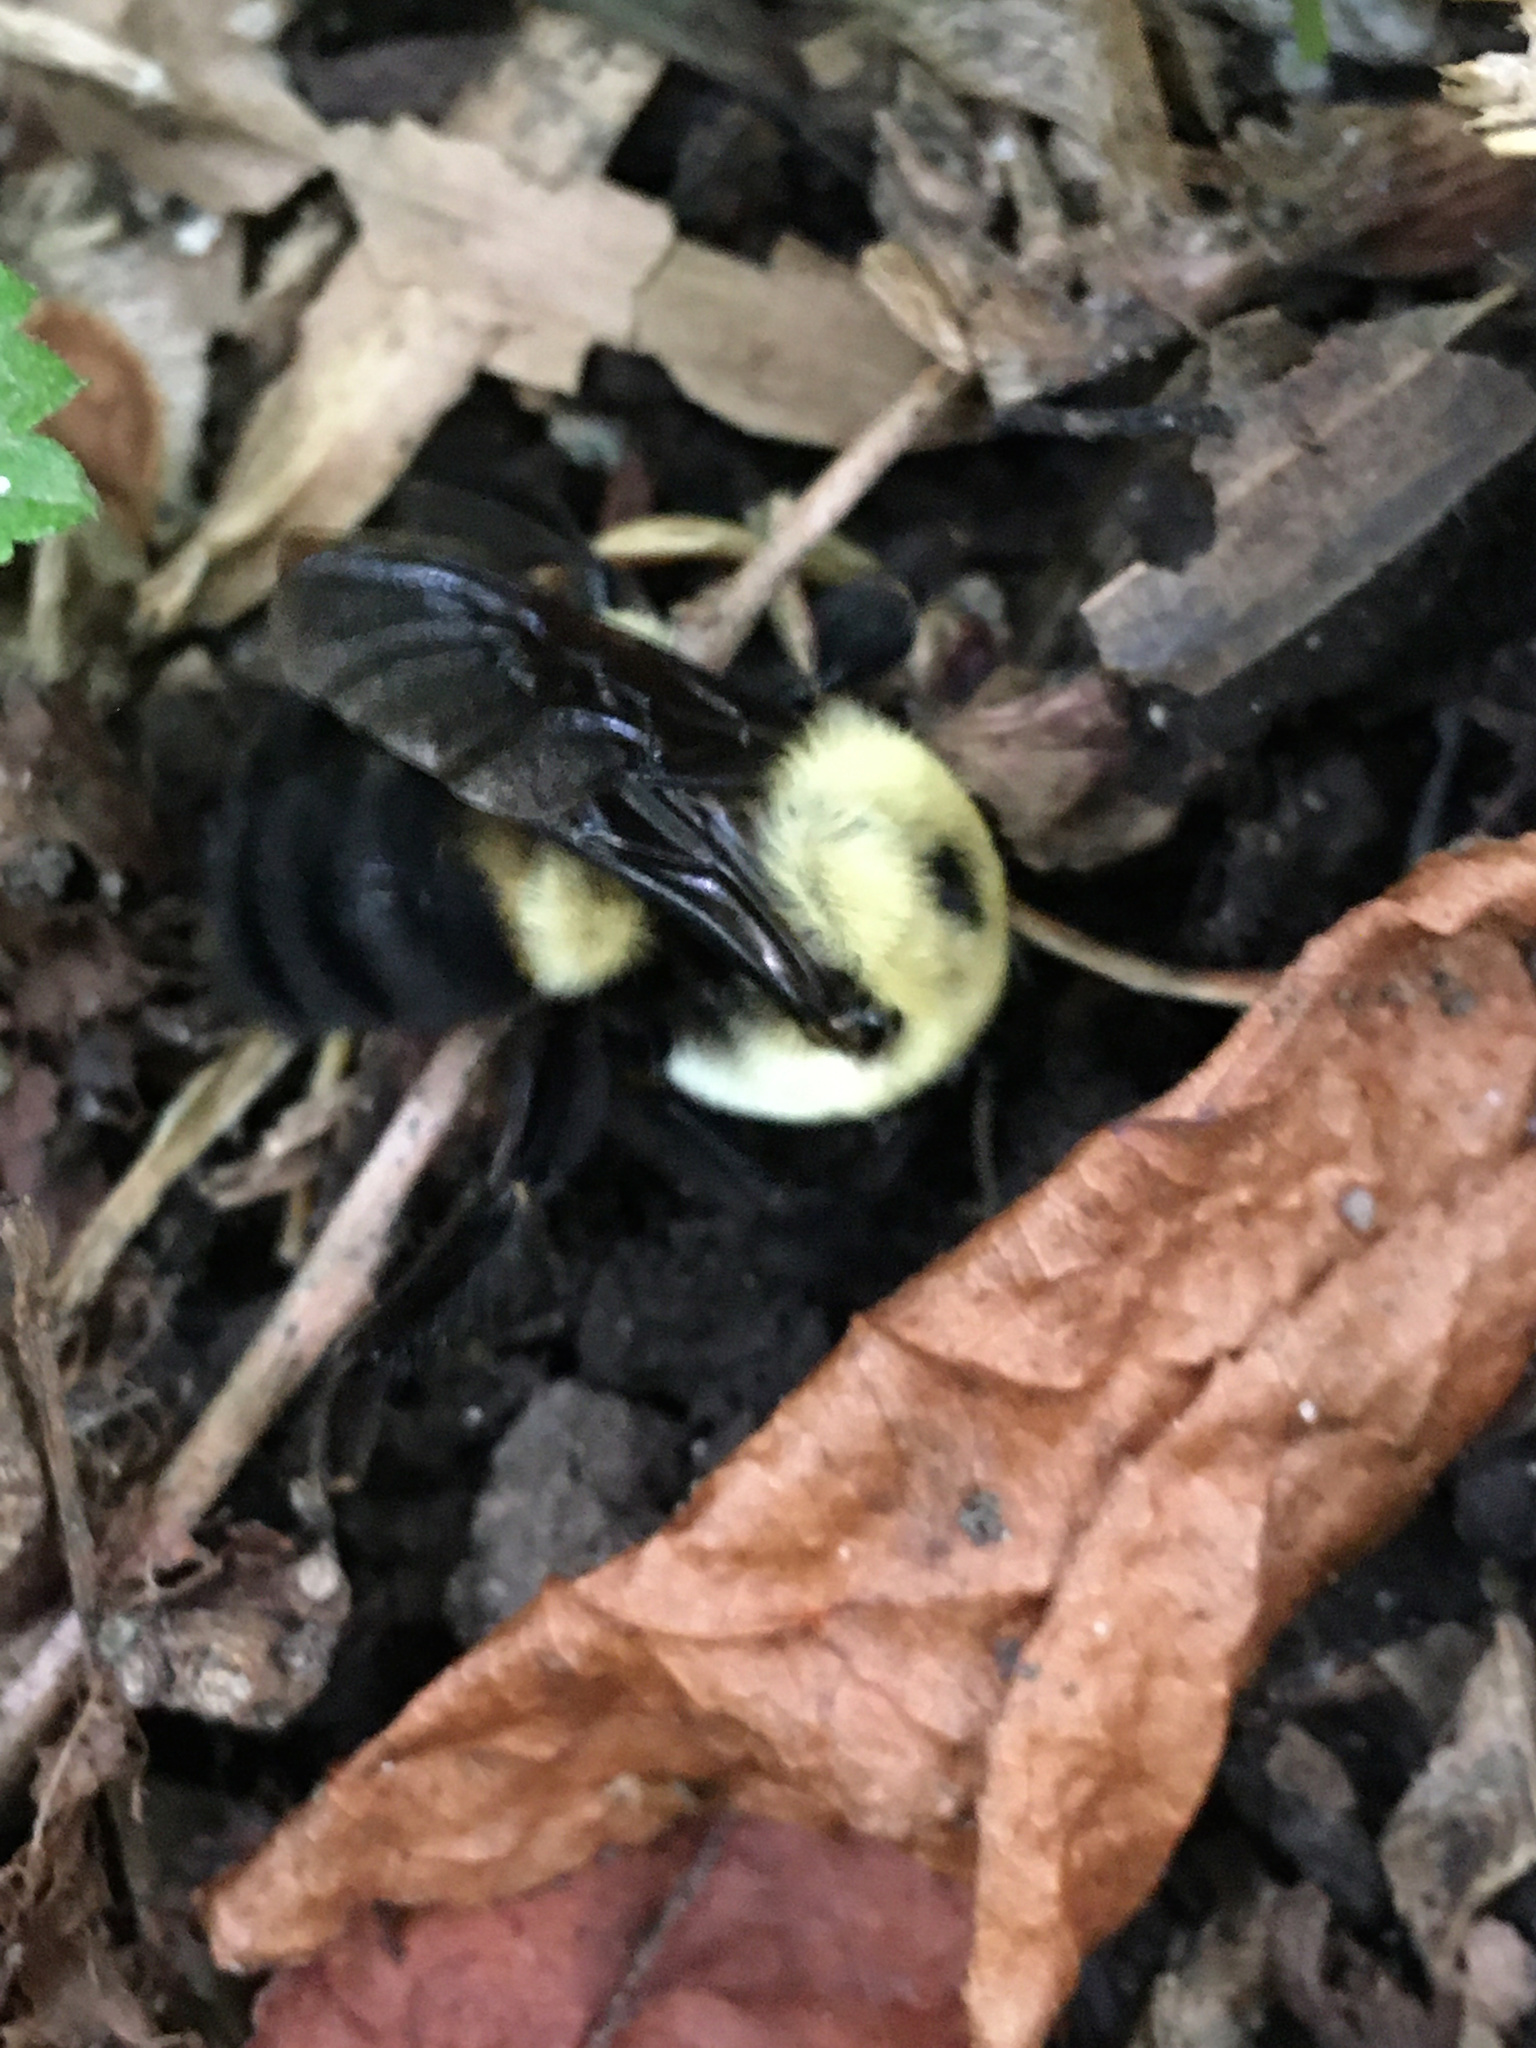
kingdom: Animalia
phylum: Arthropoda
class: Insecta
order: Hymenoptera
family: Apidae
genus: Bombus
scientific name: Bombus griseocollis
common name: Brown-belted bumble bee
